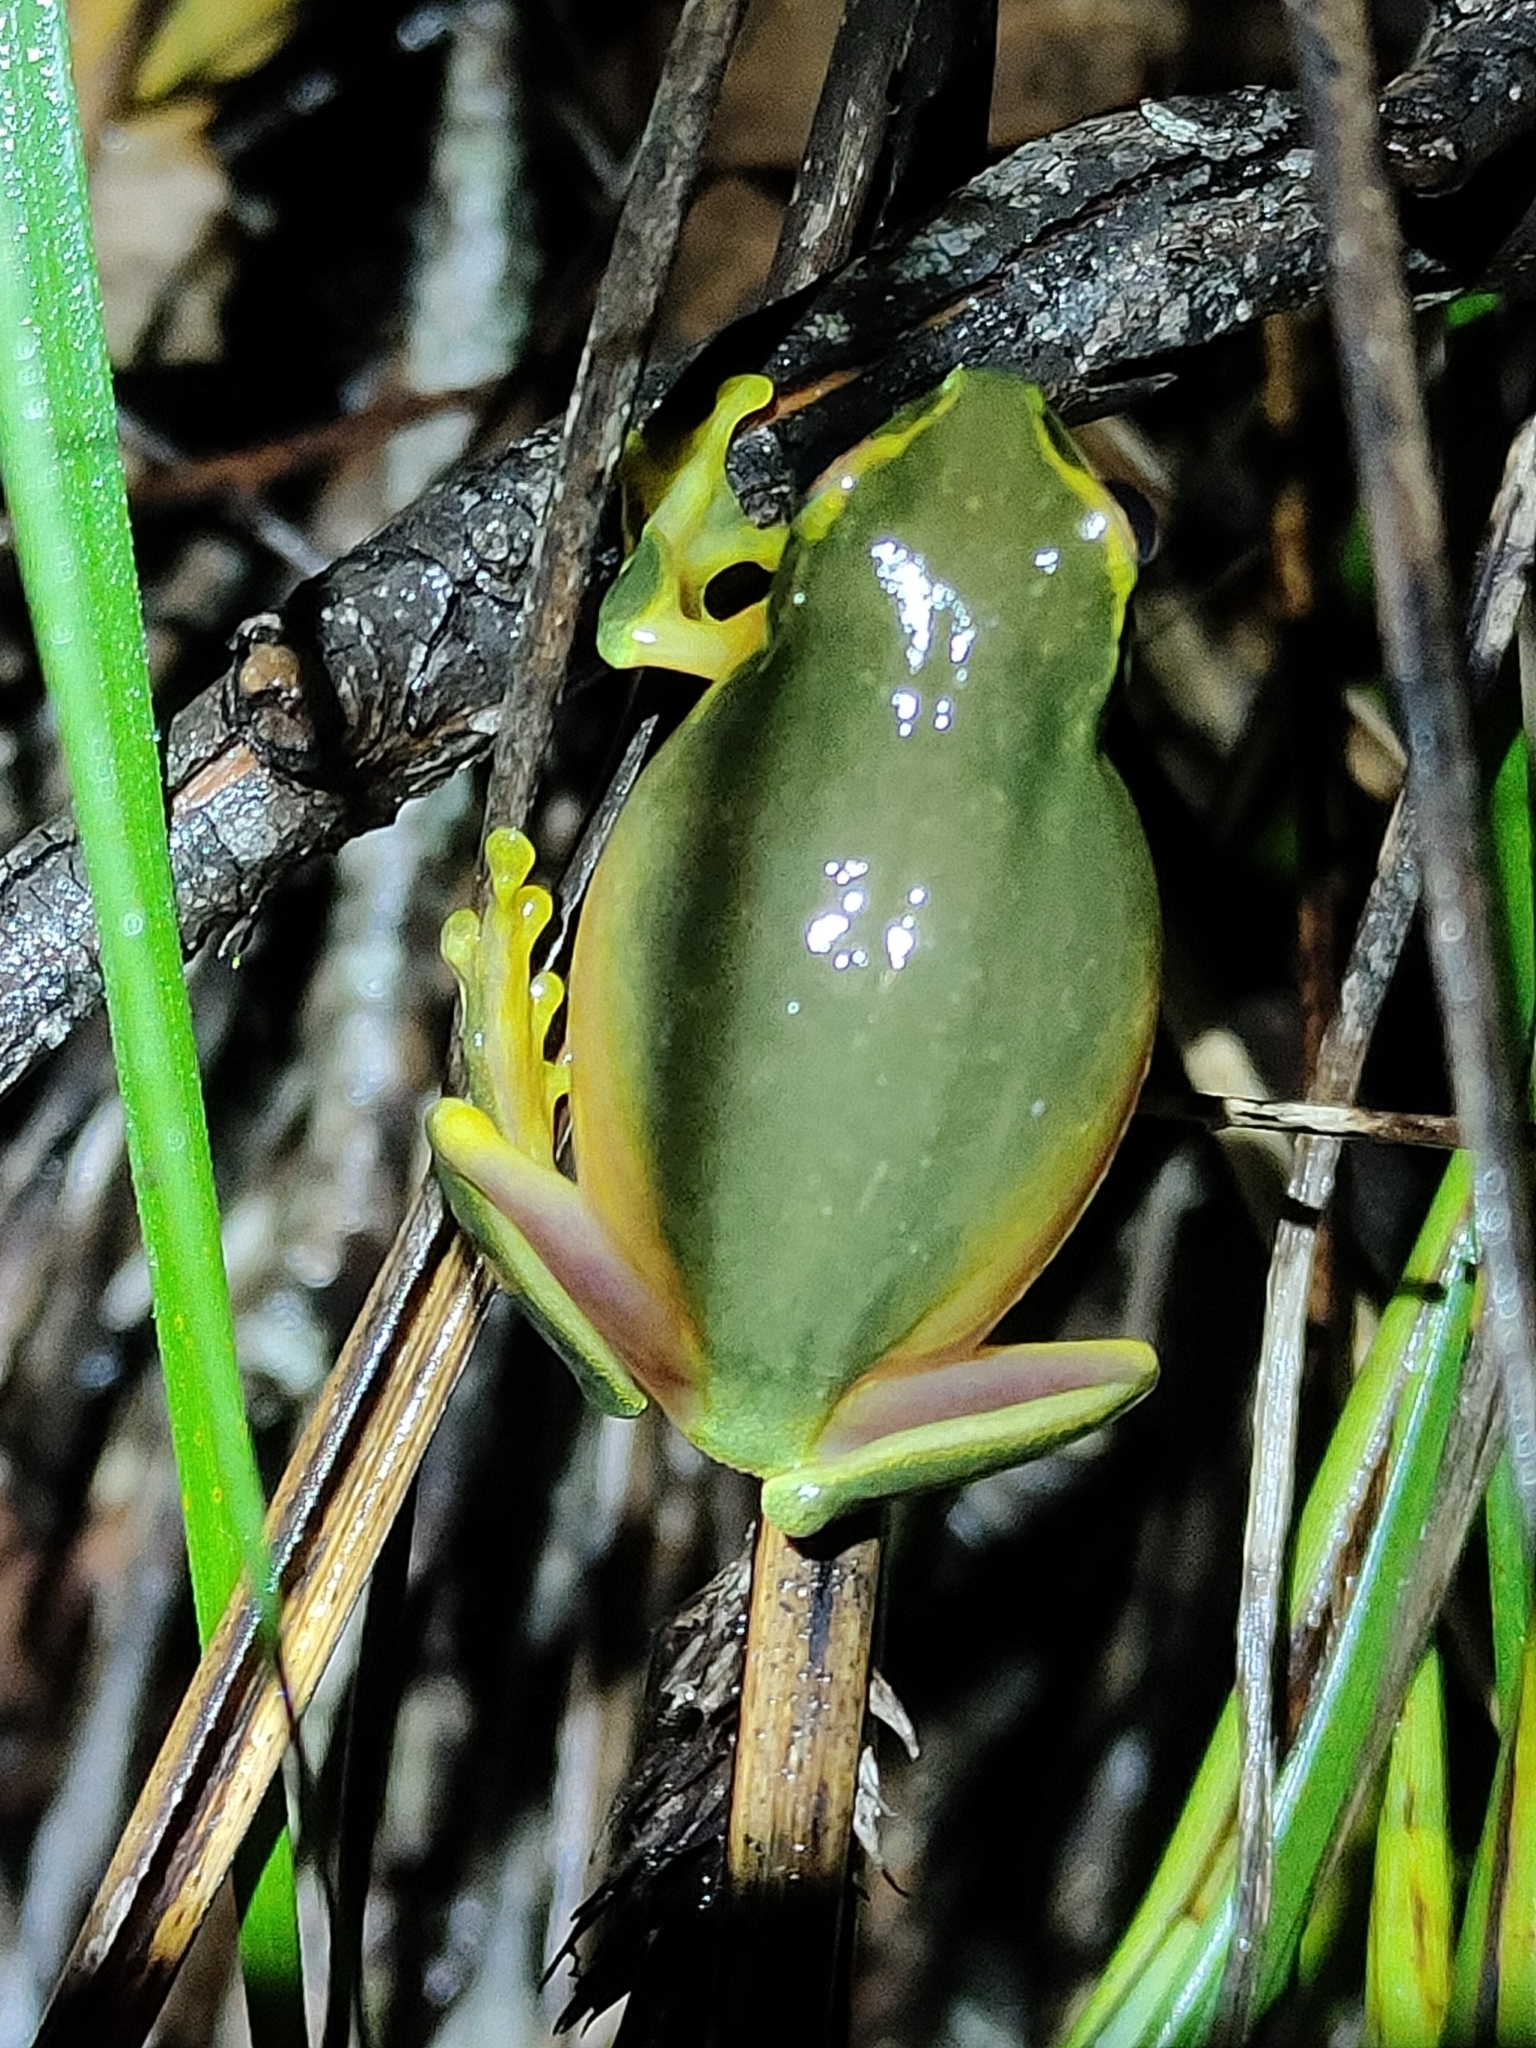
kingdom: Animalia
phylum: Chordata
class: Amphibia
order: Anura
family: Pelodryadidae
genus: Ranoidea
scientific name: Ranoidea gracilenta
